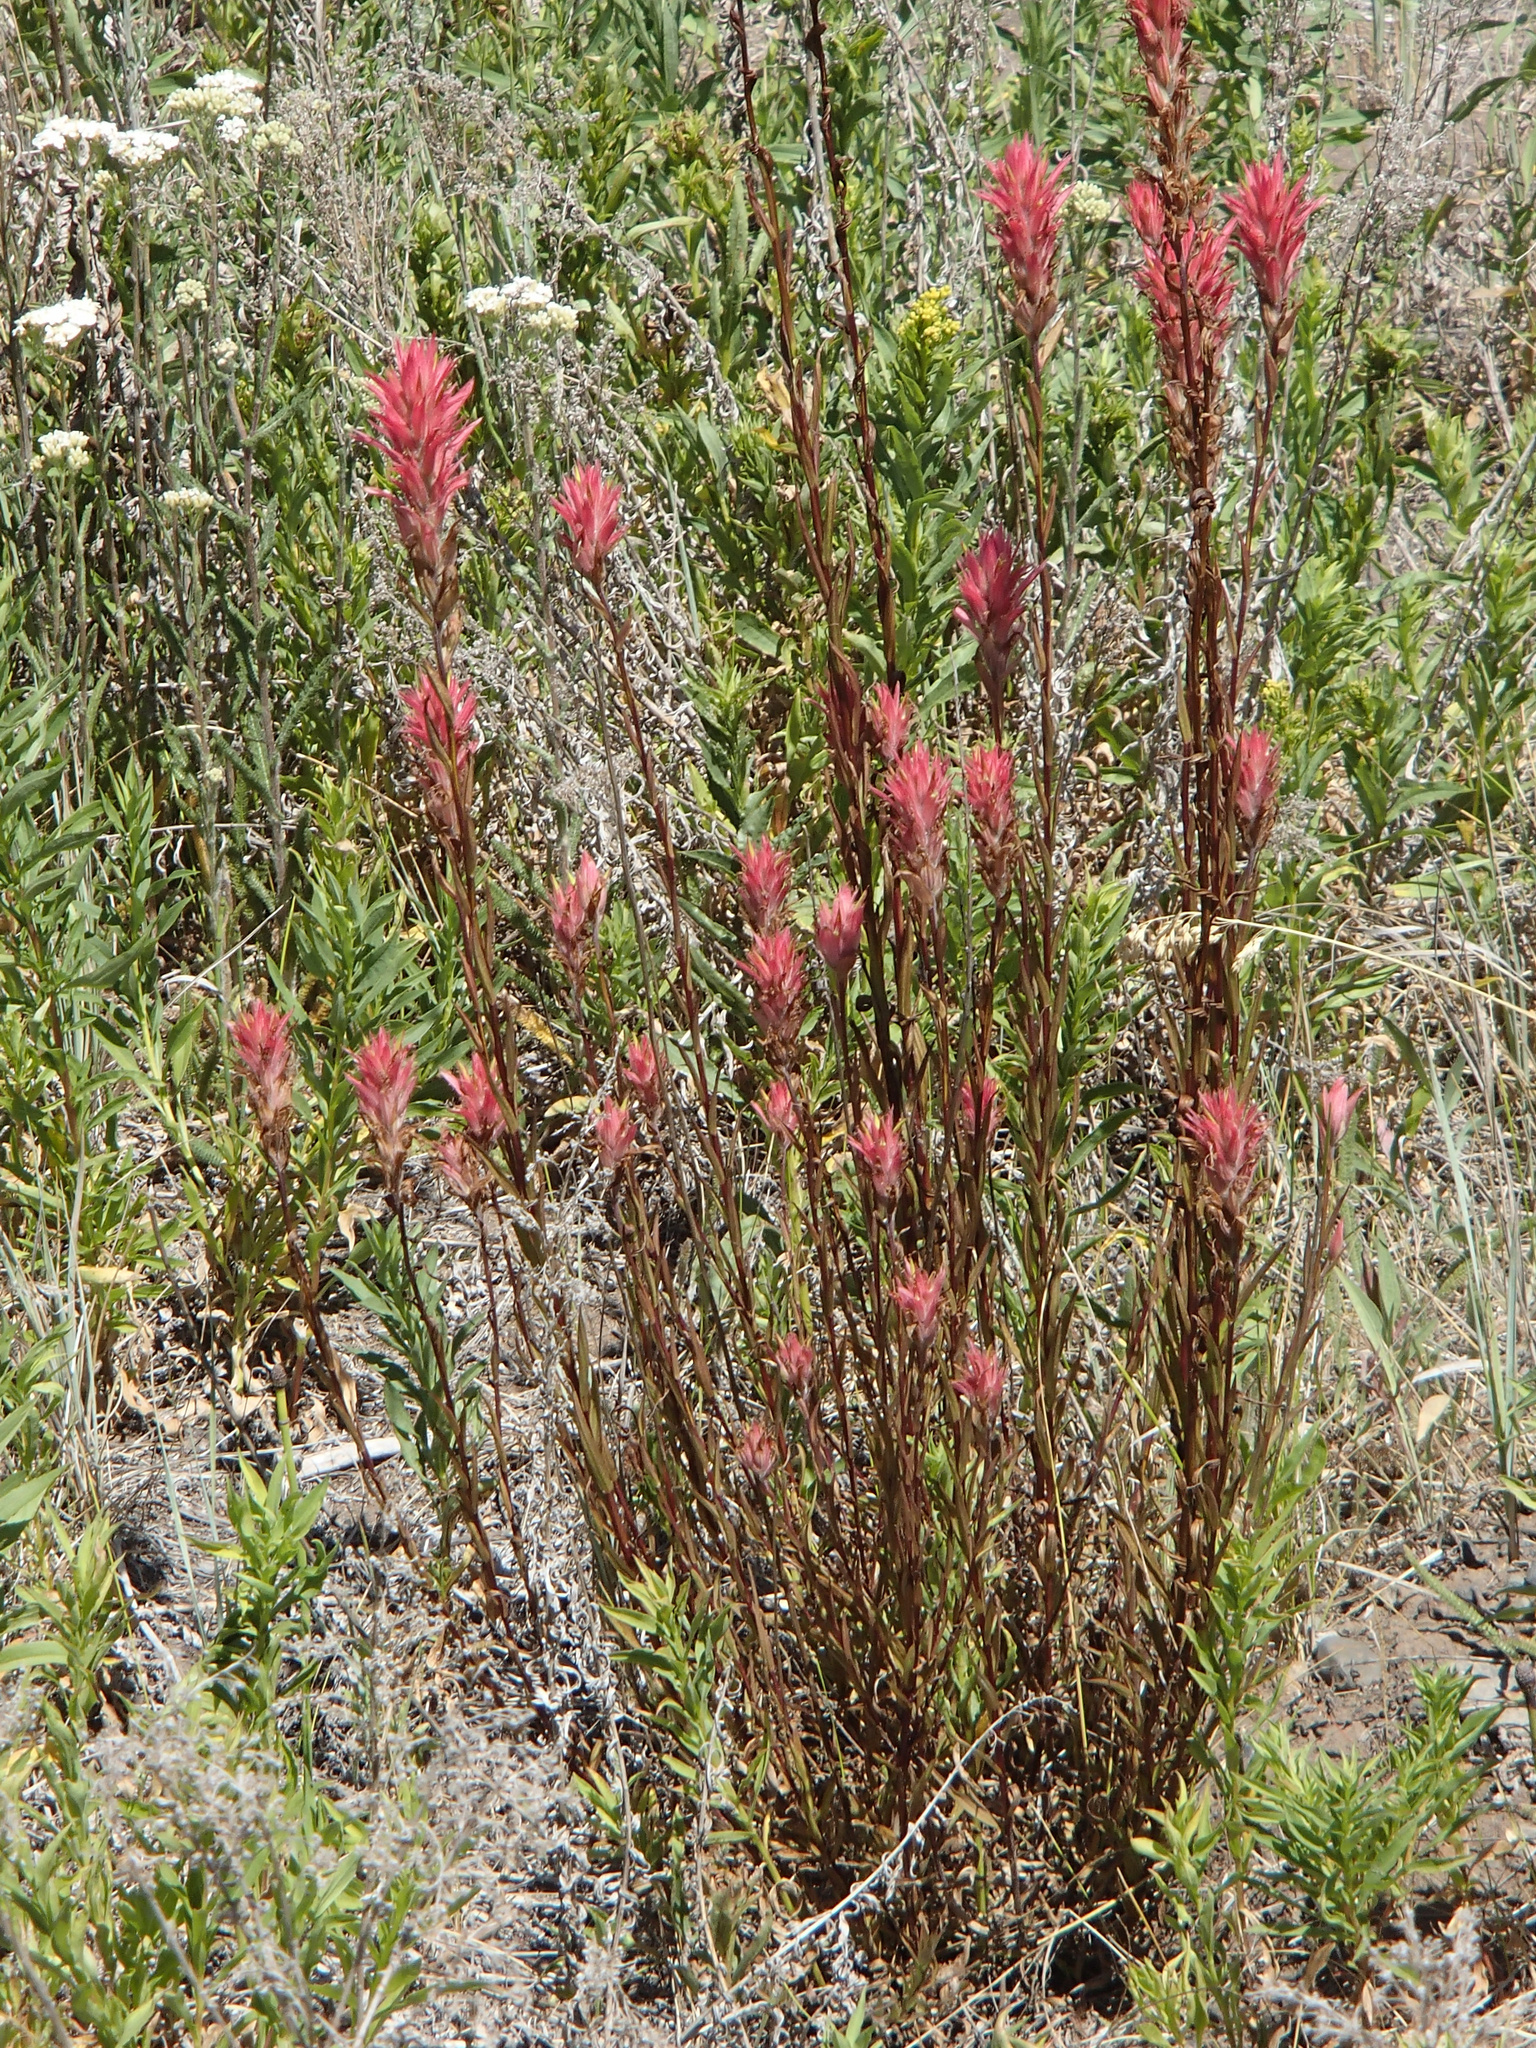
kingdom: Plantae
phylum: Tracheophyta
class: Magnoliopsida
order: Lamiales
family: Orobanchaceae
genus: Castilleja
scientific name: Castilleja
